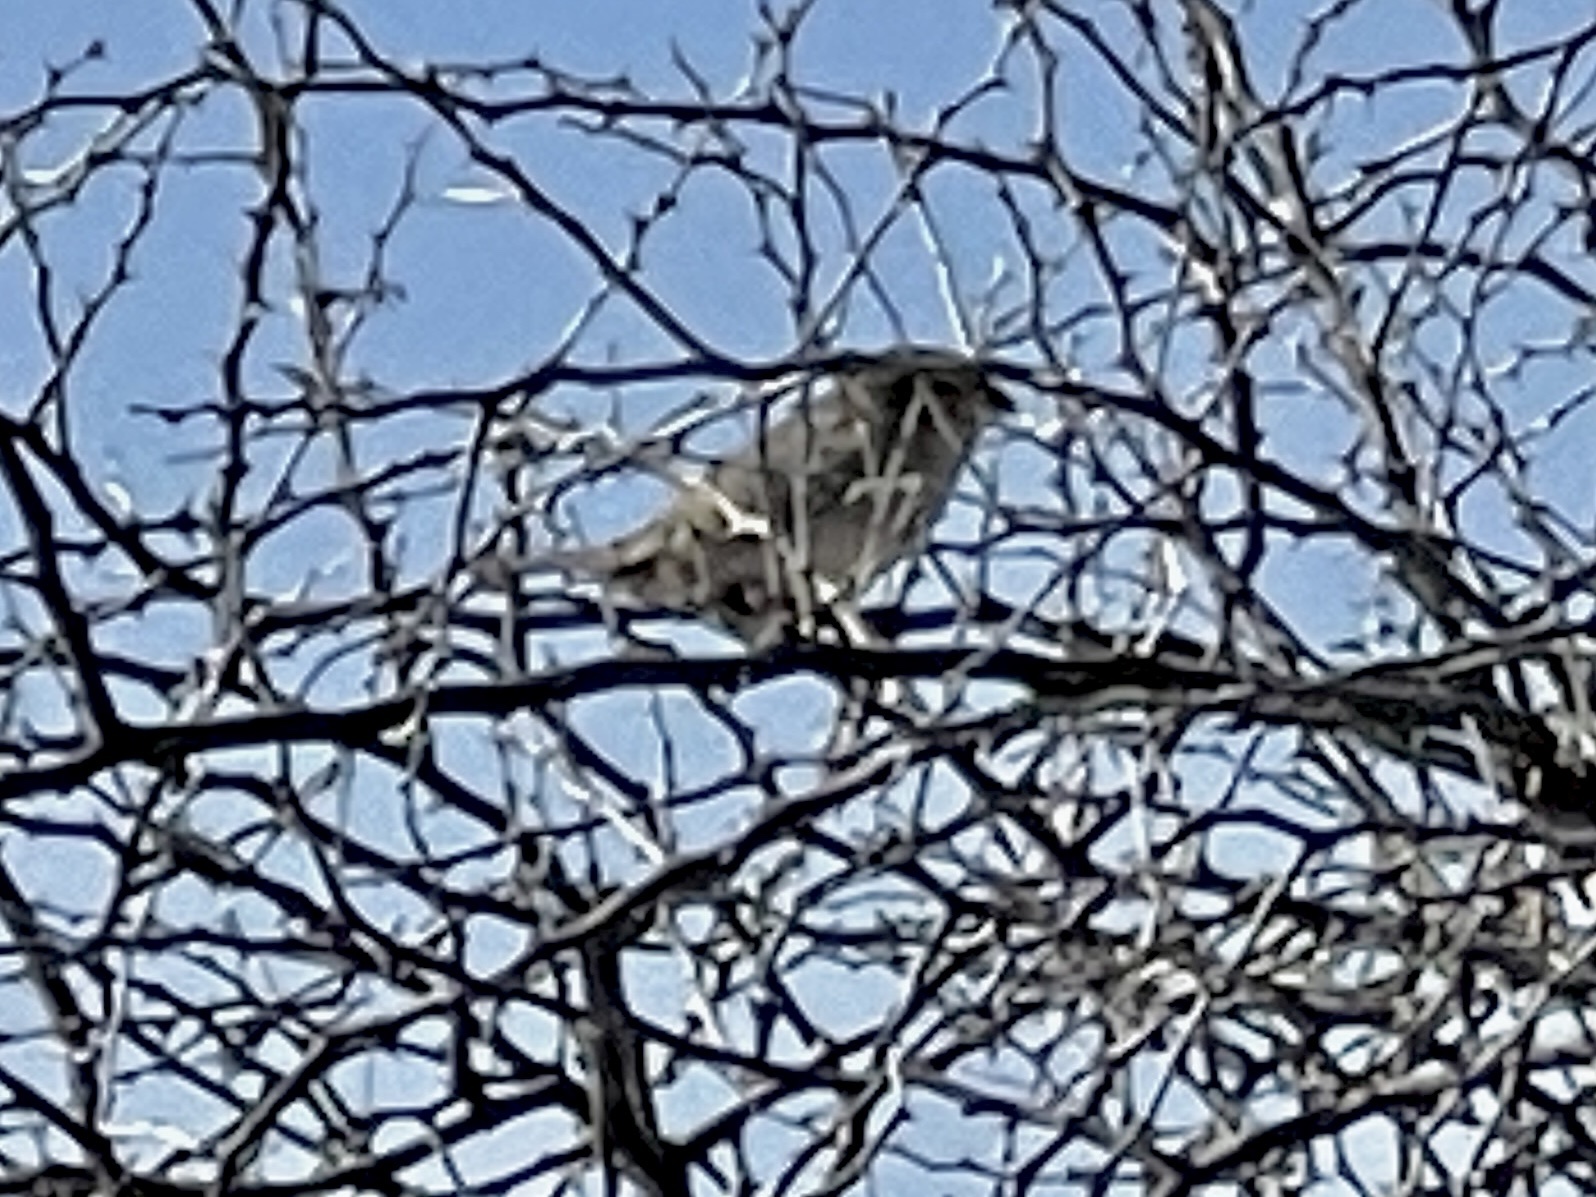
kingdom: Animalia
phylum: Chordata
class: Aves
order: Passeriformes
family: Passeridae
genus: Passer
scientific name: Passer domesticus
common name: House sparrow
